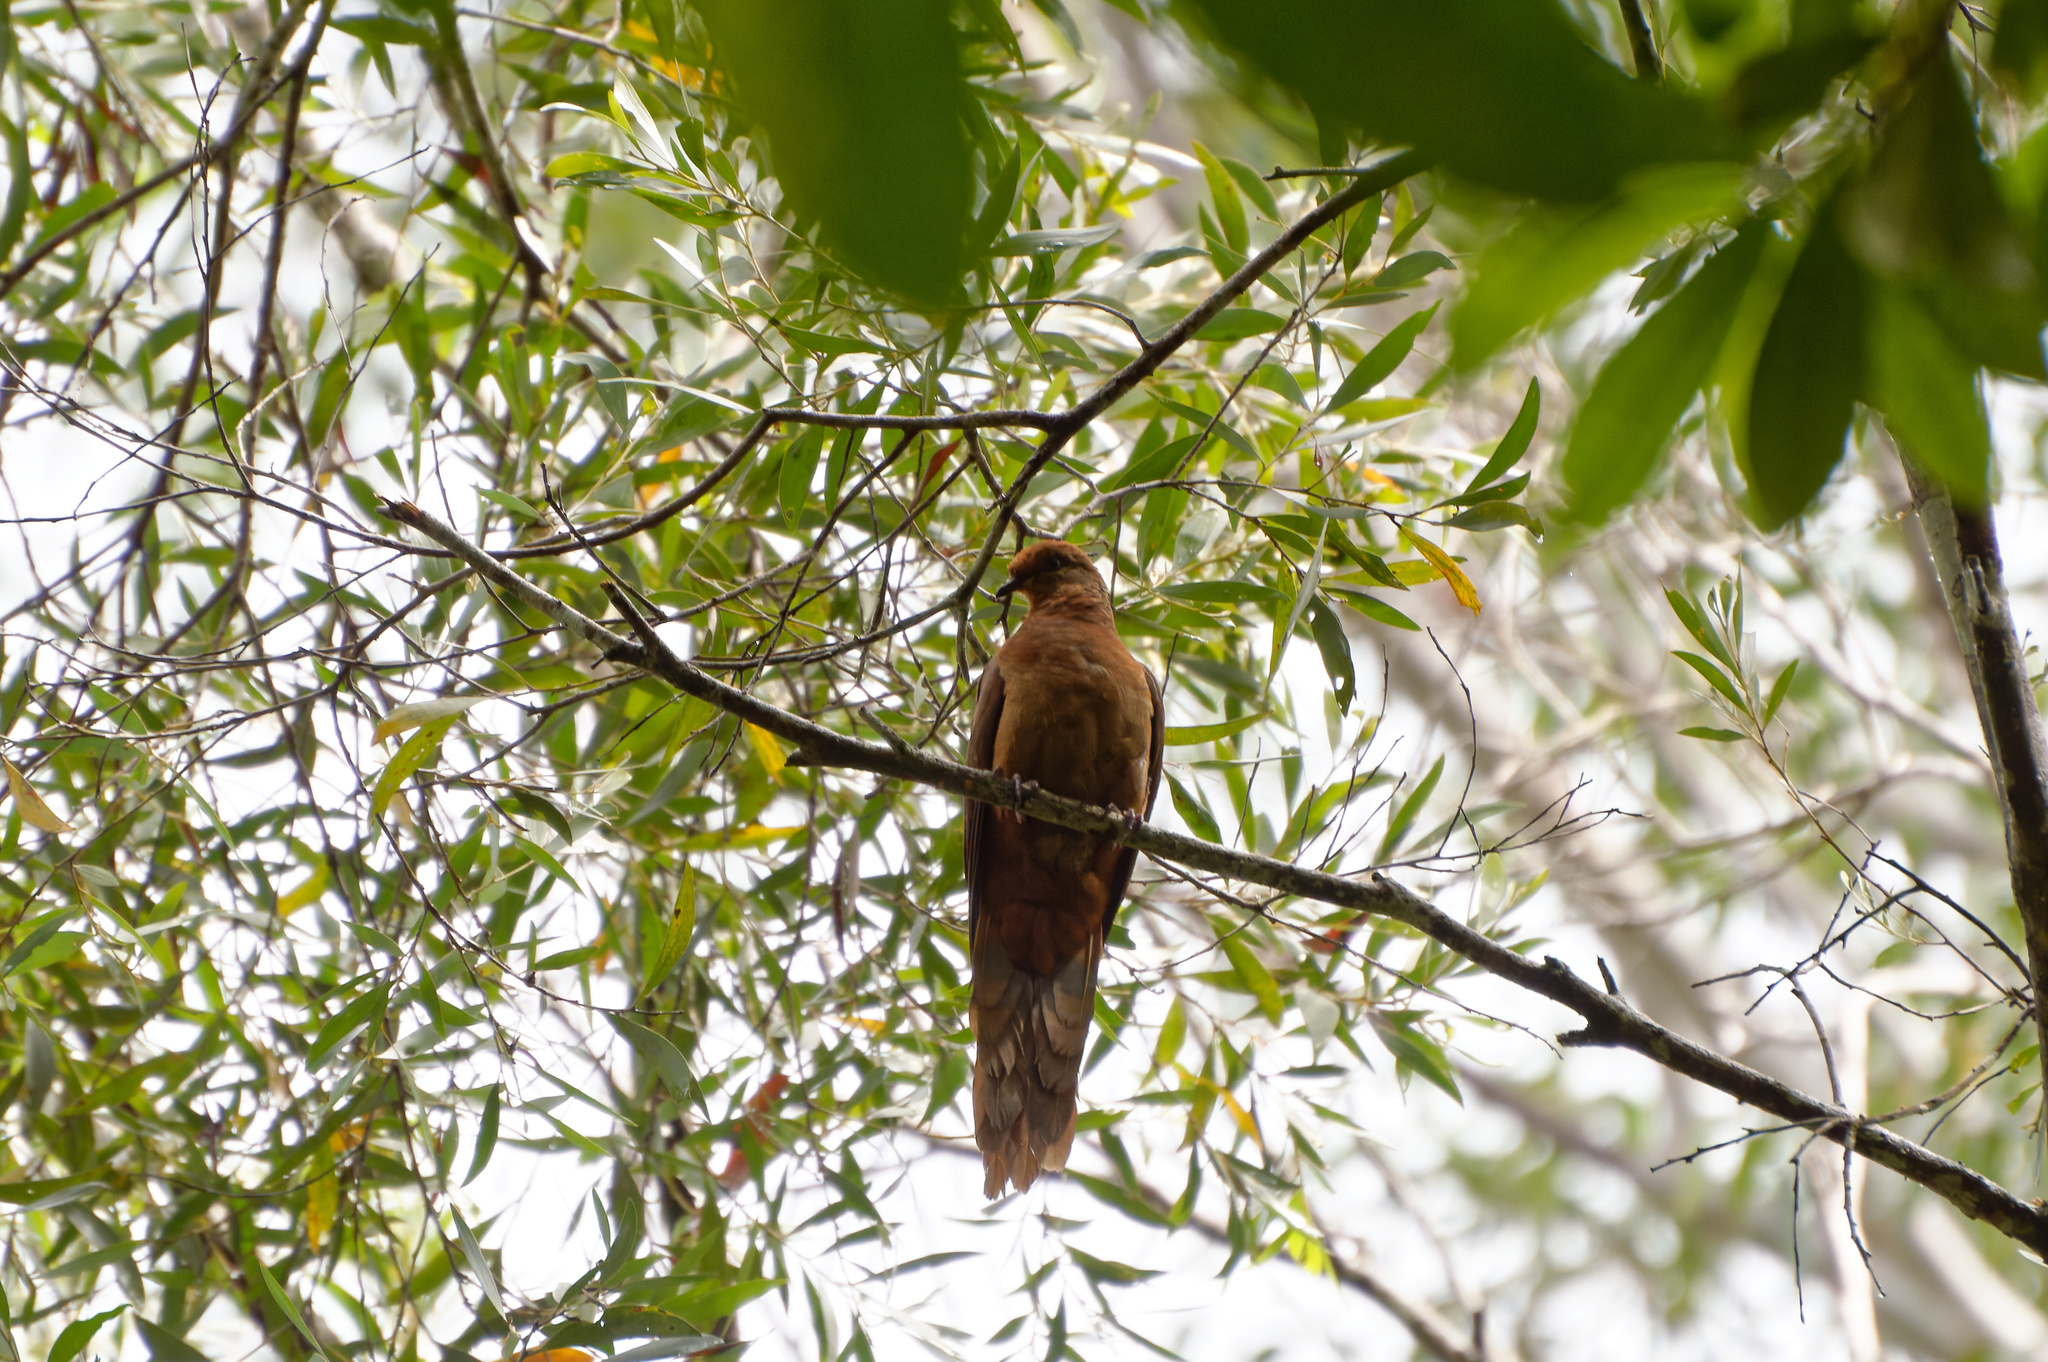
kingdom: Animalia
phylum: Chordata
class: Aves
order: Columbiformes
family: Columbidae
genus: Macropygia
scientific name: Macropygia phasianella
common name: Brown cuckoo-dove
